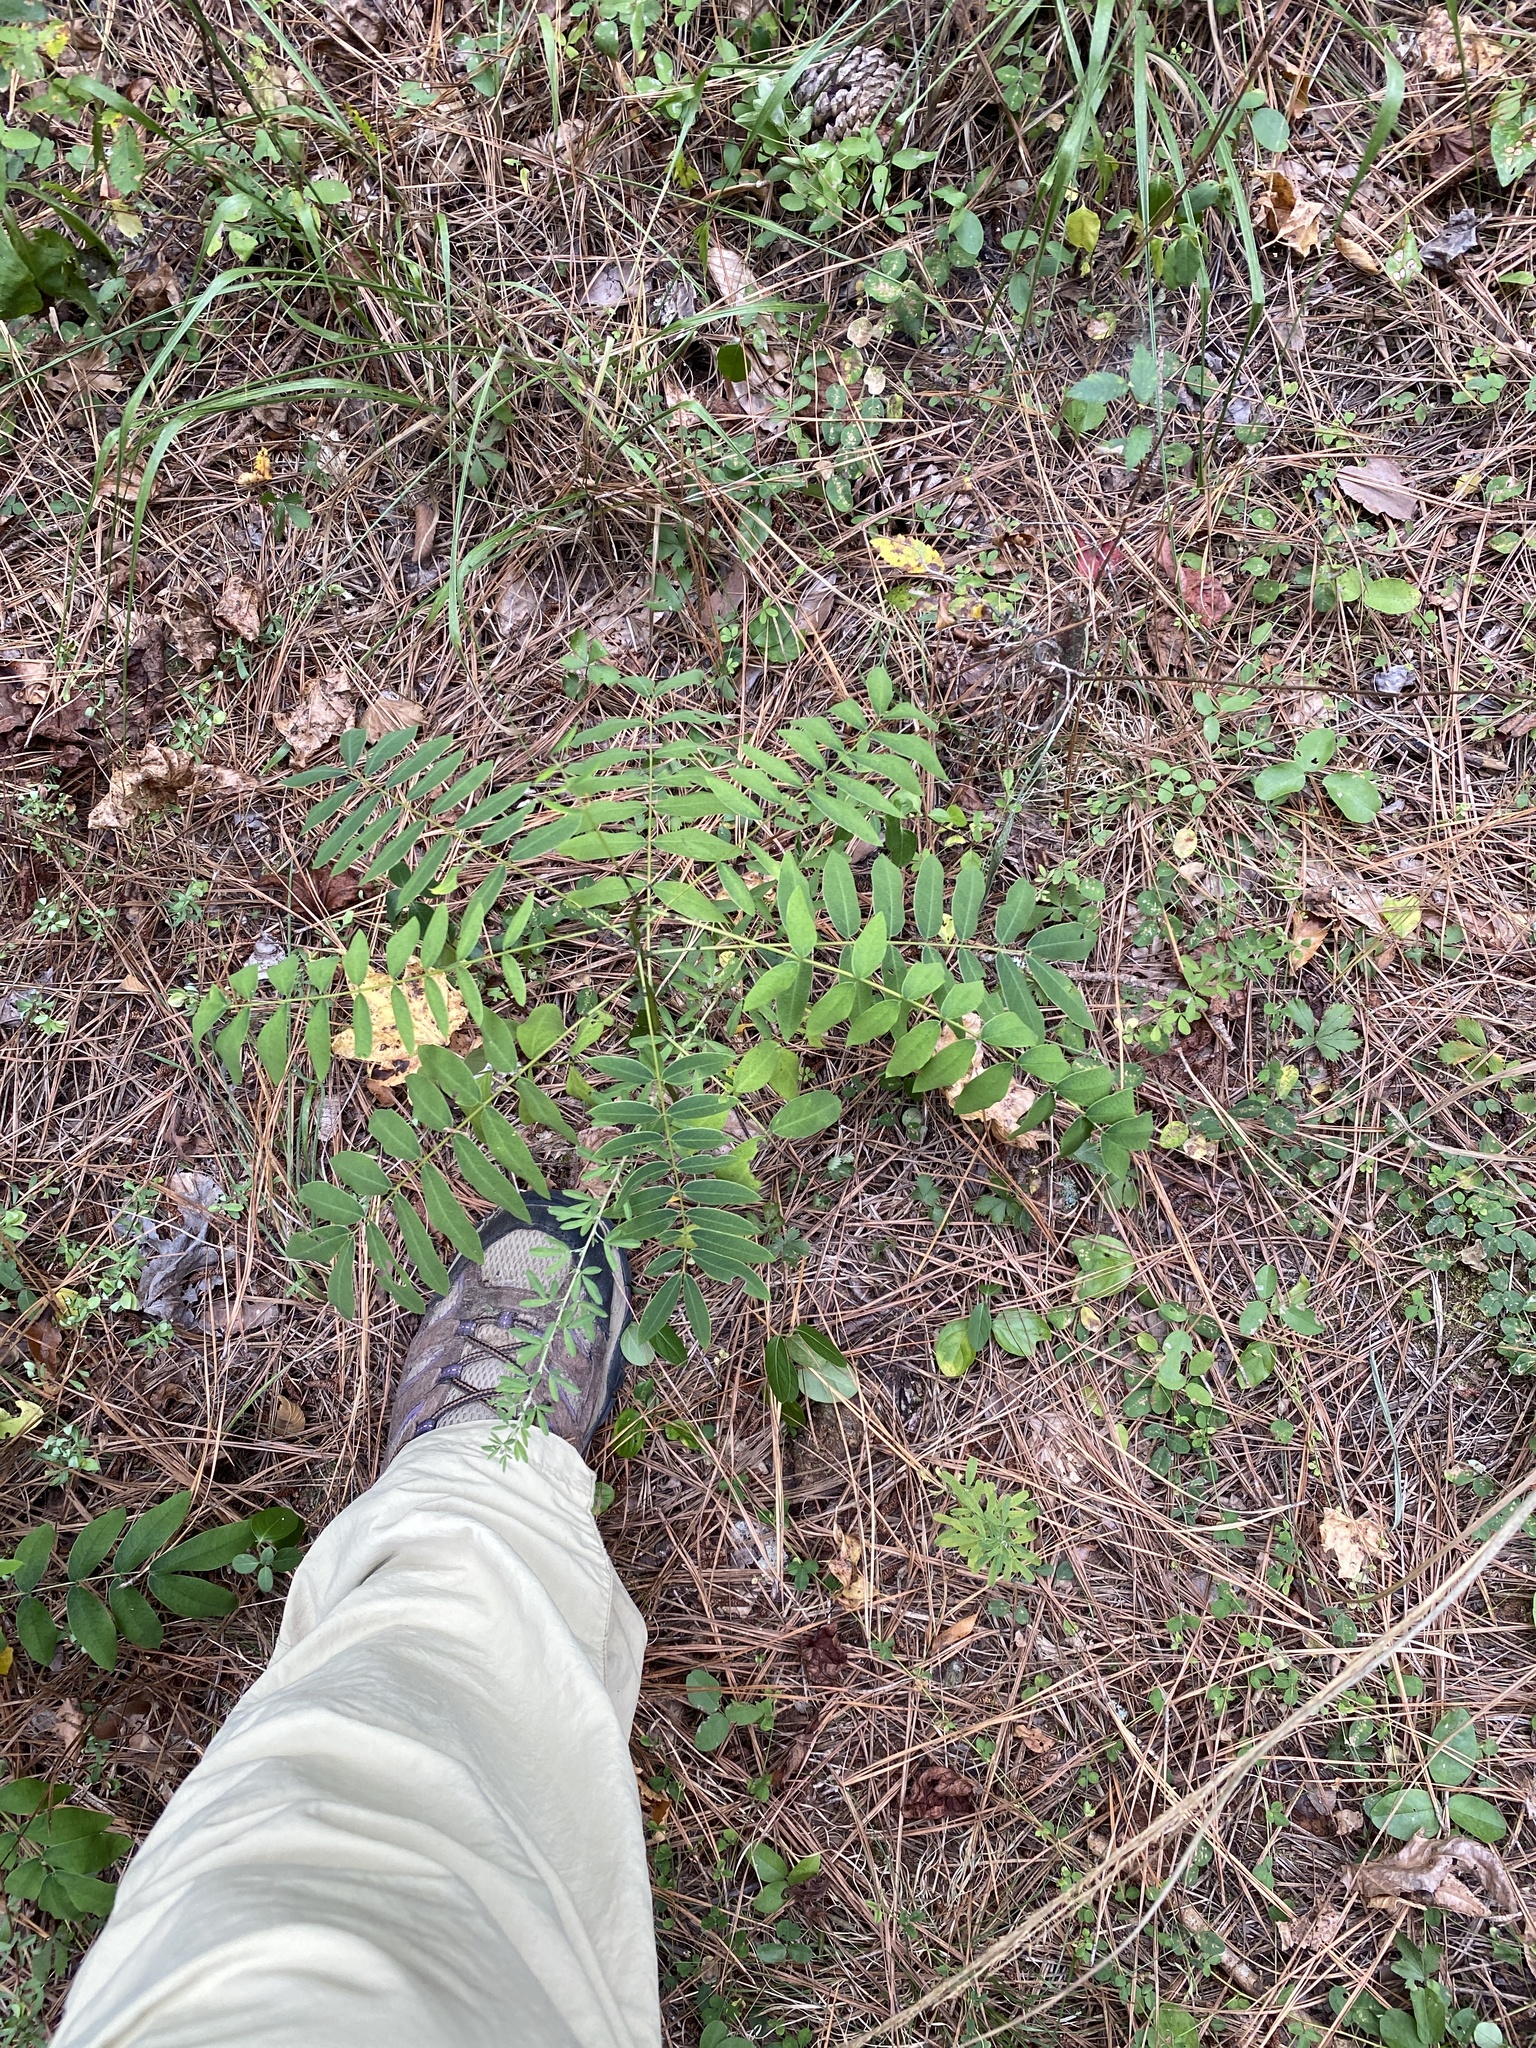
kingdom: Plantae
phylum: Tracheophyta
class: Magnoliopsida
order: Fabales
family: Fabaceae
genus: Senna
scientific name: Senna marilandica
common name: American senna
